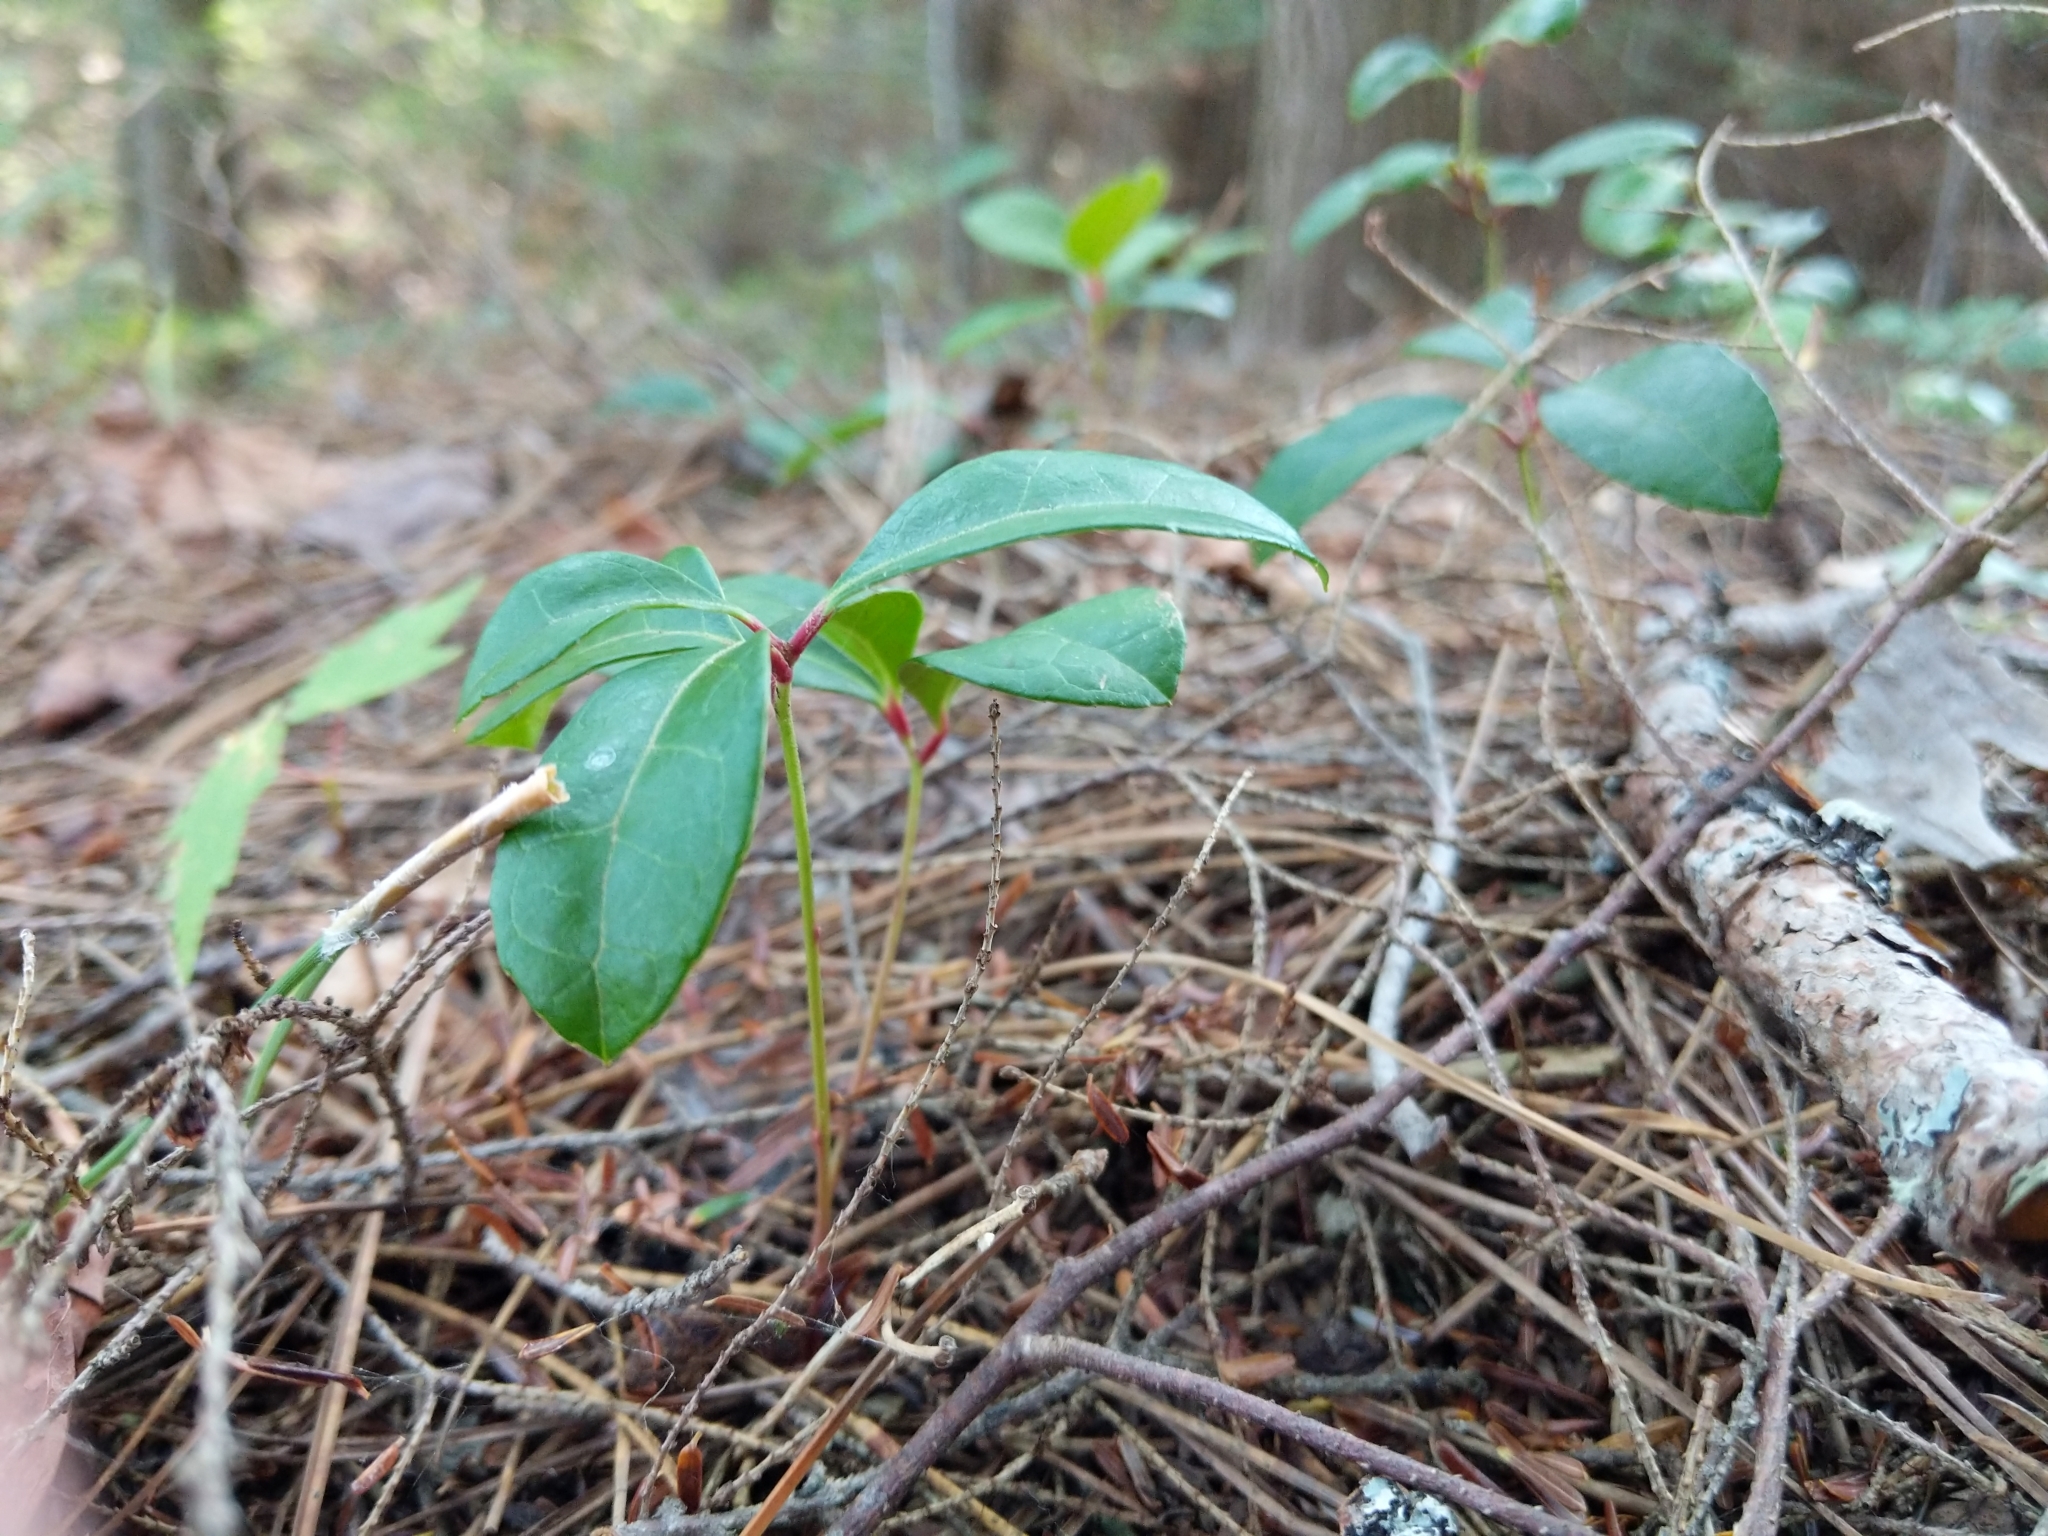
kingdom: Plantae
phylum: Tracheophyta
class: Magnoliopsida
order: Ericales
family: Ericaceae
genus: Gaultheria
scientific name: Gaultheria procumbens
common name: Checkerberry
